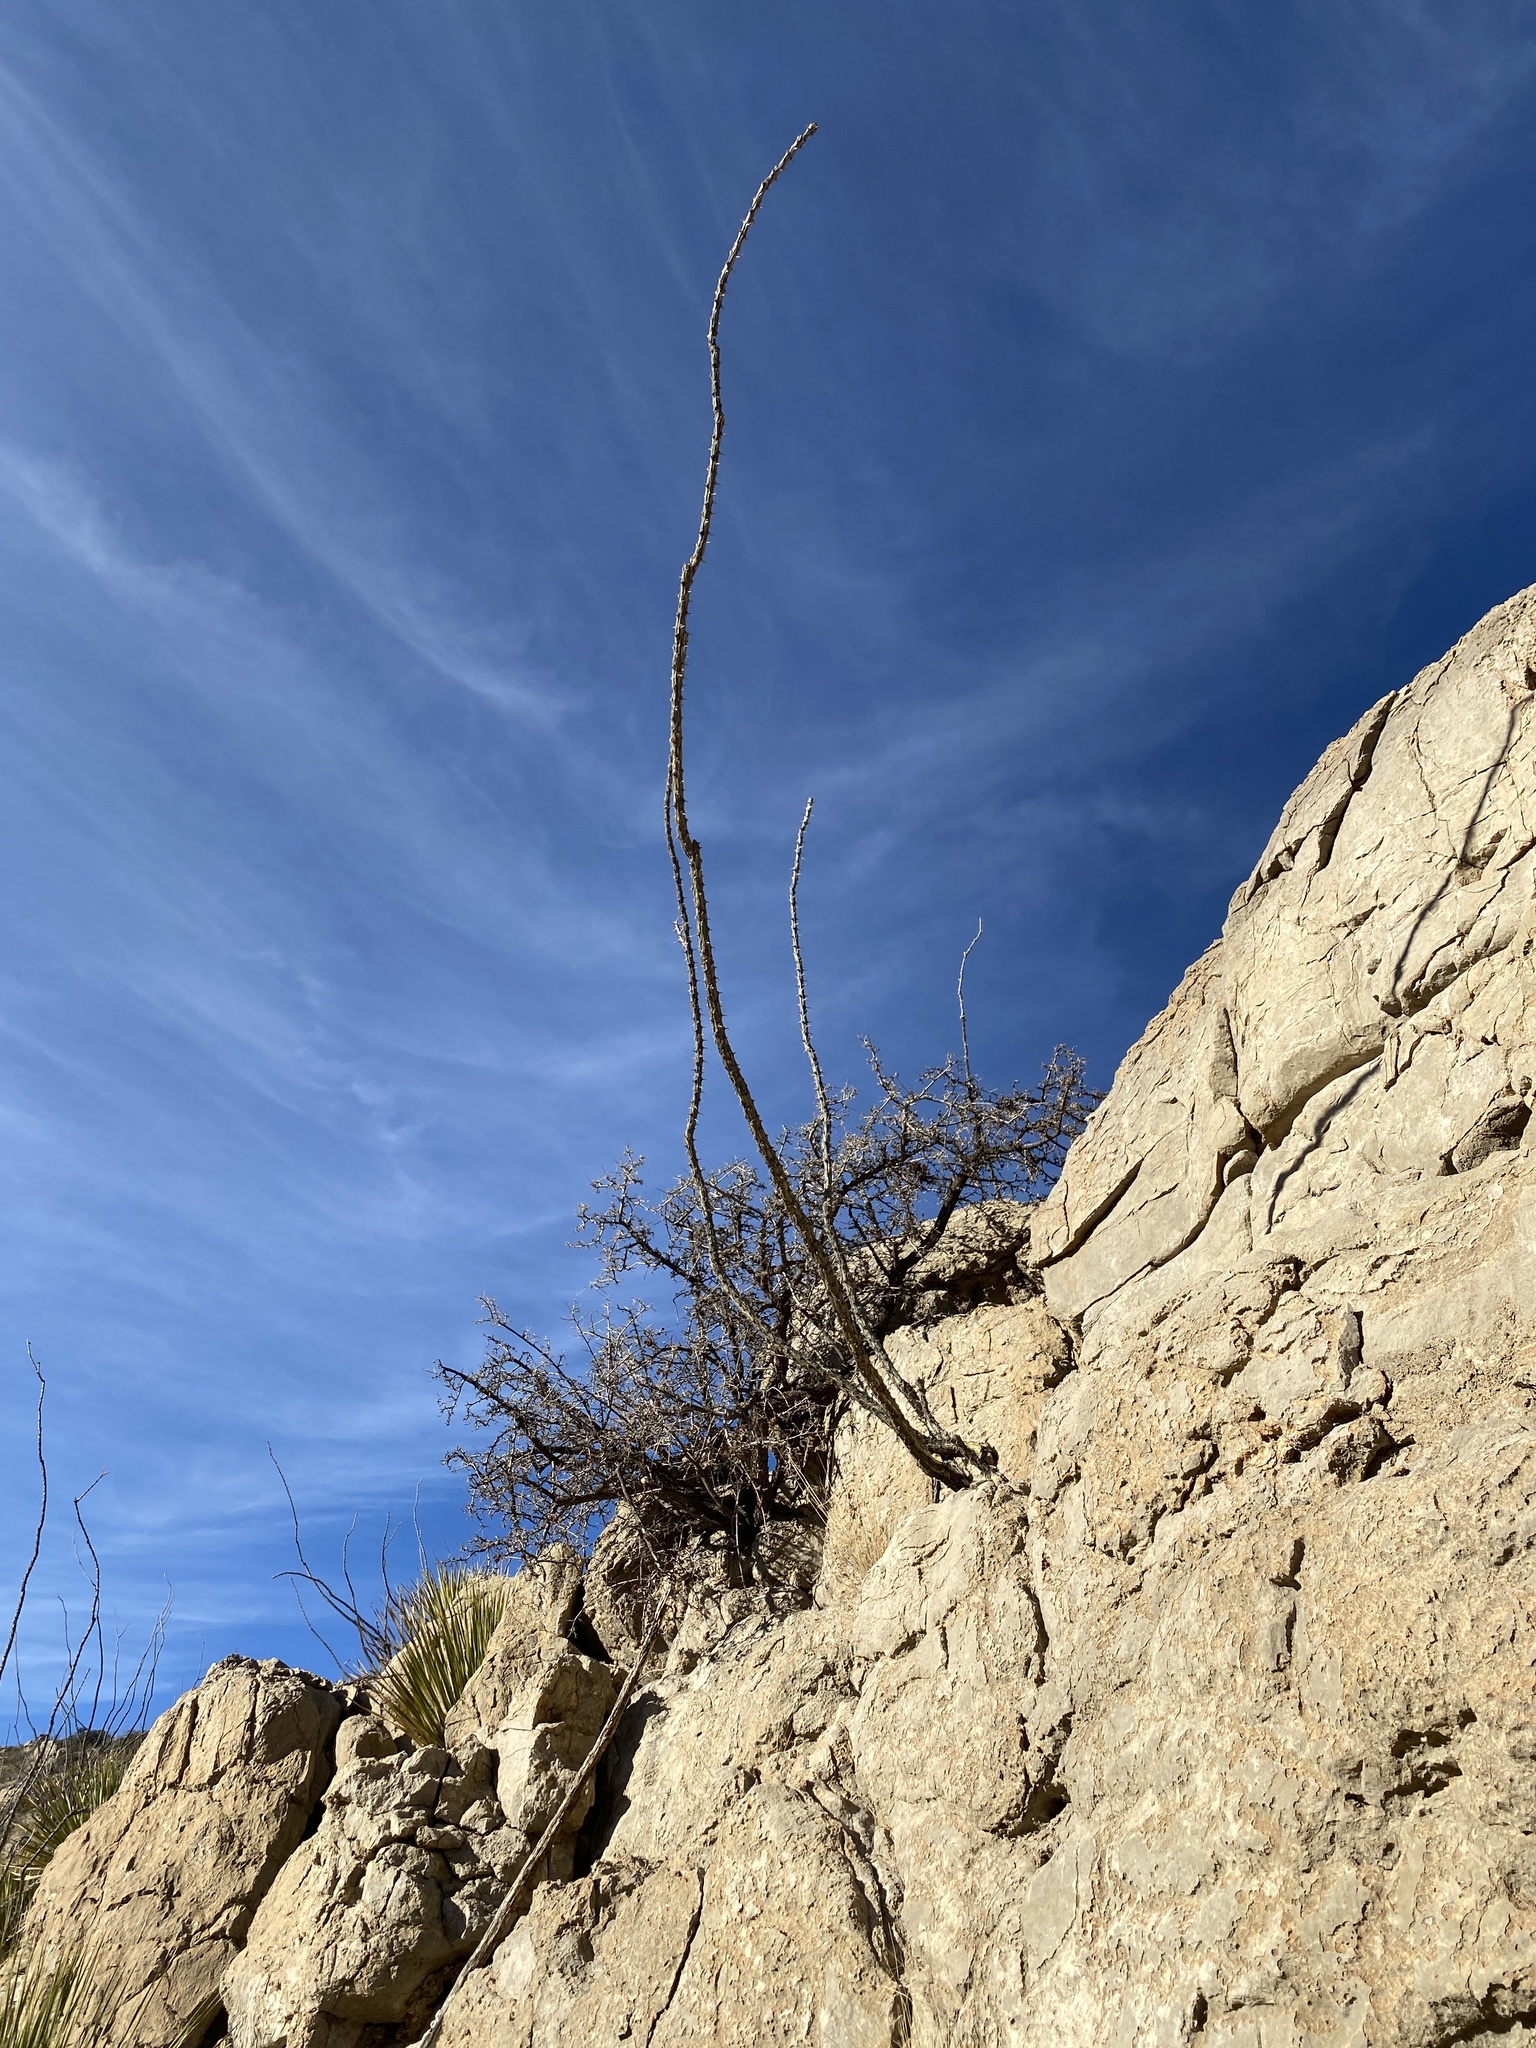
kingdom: Plantae
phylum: Tracheophyta
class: Magnoliopsida
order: Ericales
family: Fouquieriaceae
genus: Fouquieria
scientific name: Fouquieria splendens
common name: Vine-cactus
